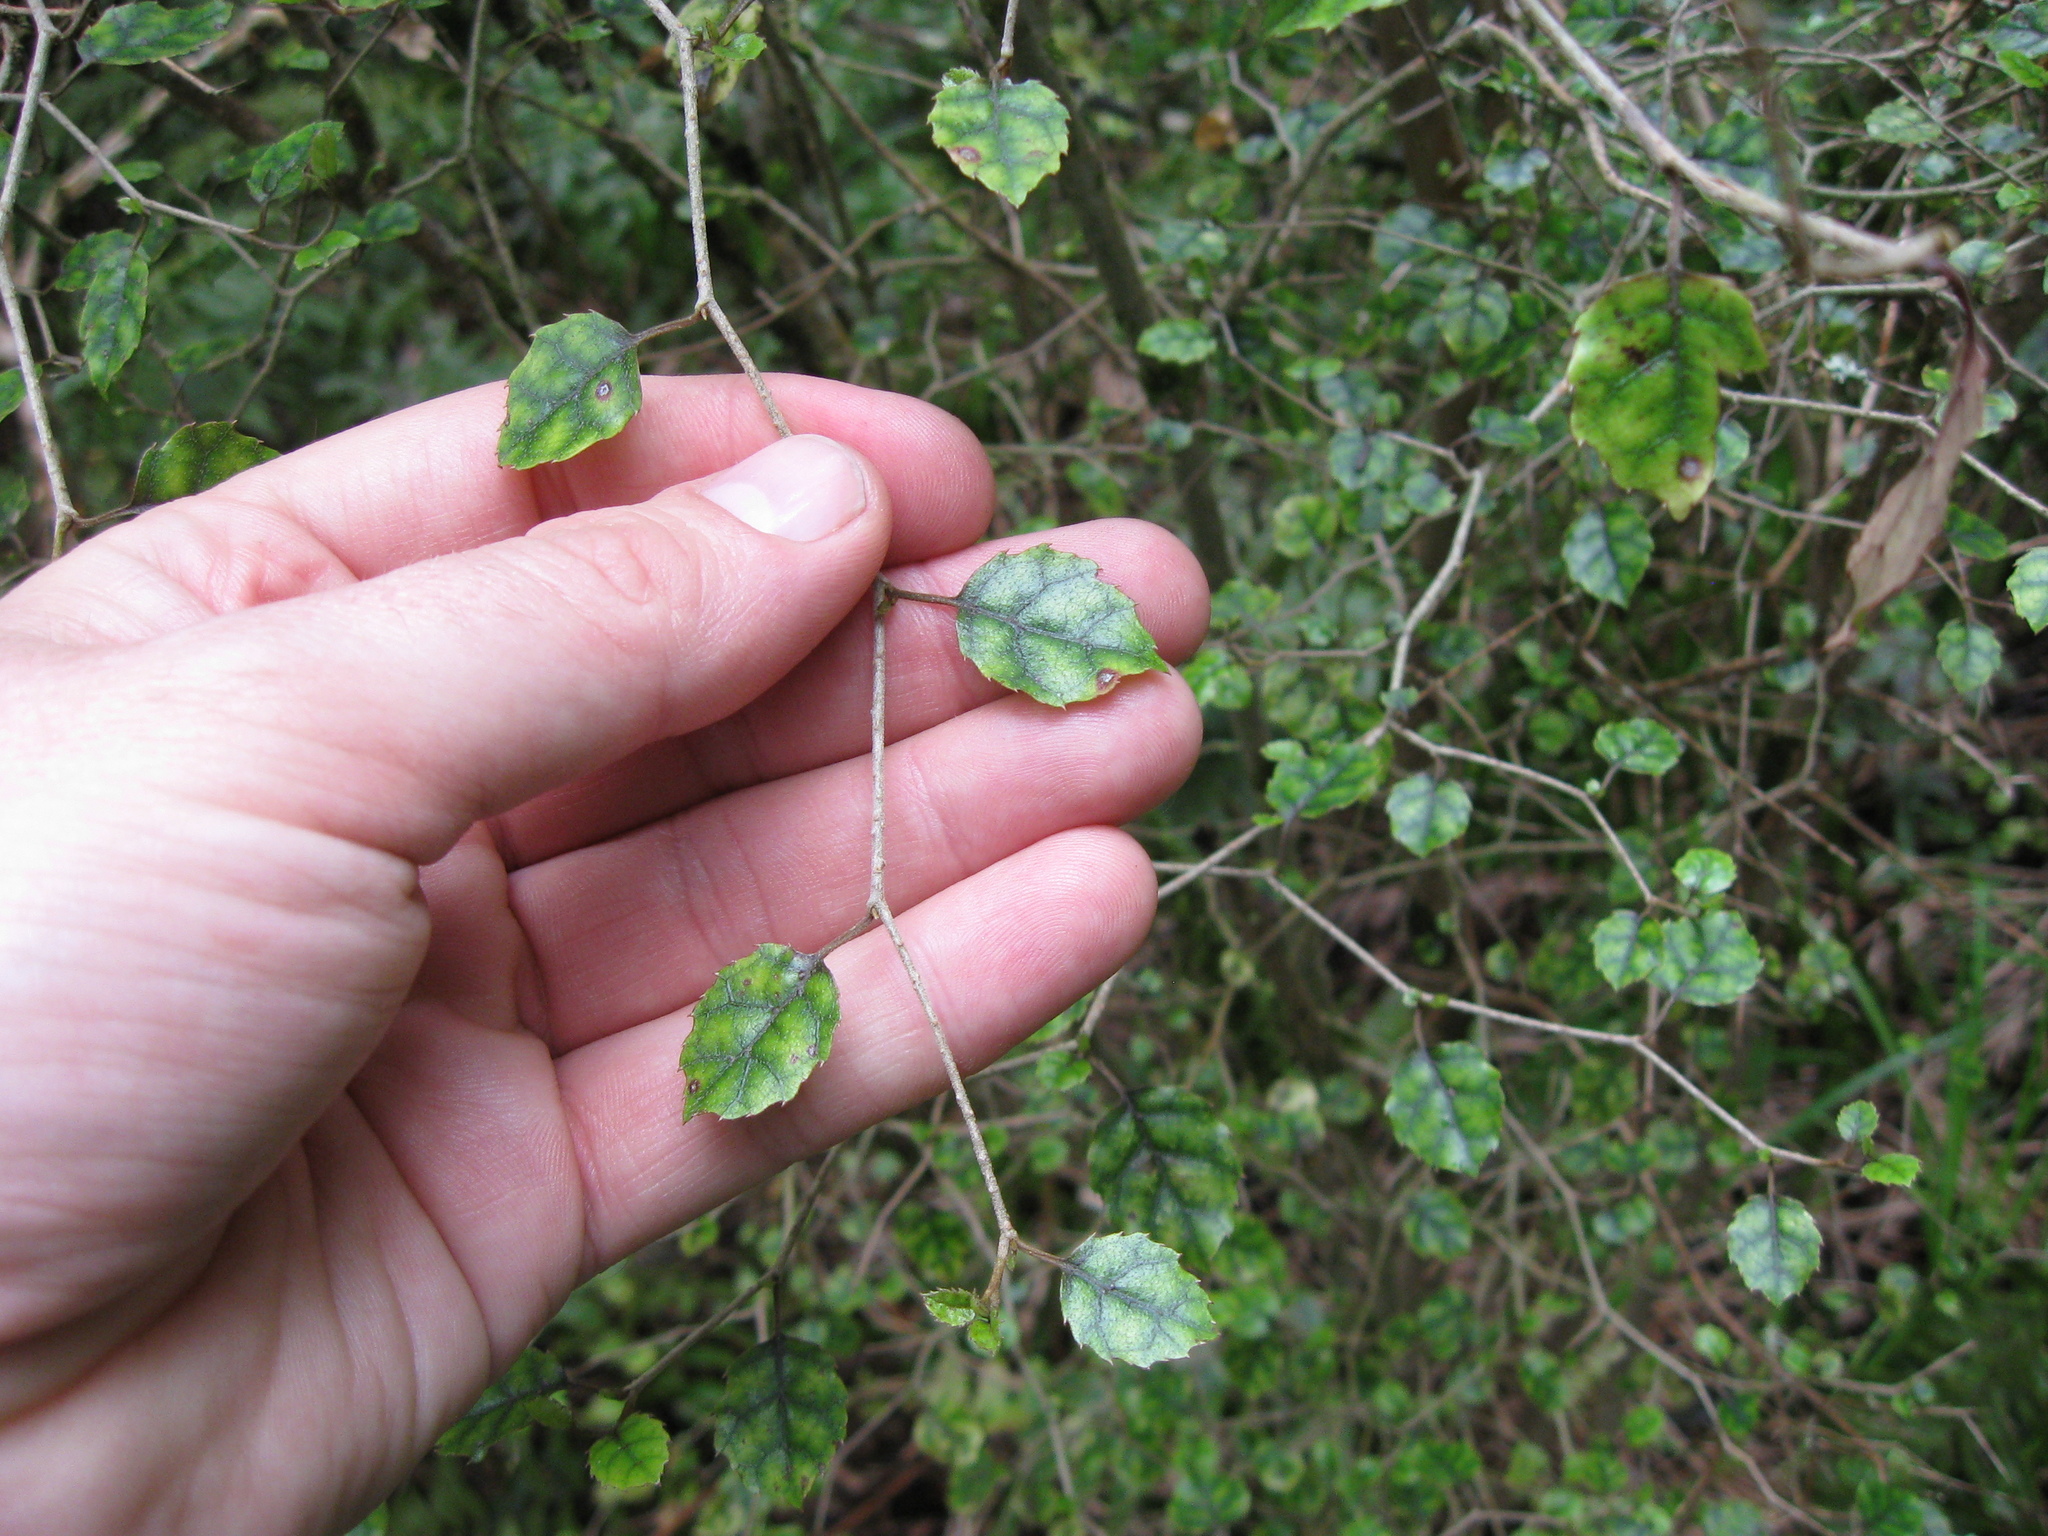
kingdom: Plantae
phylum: Tracheophyta
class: Magnoliopsida
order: Asterales
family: Rousseaceae
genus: Carpodetus
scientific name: Carpodetus serratus
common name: White mapau
